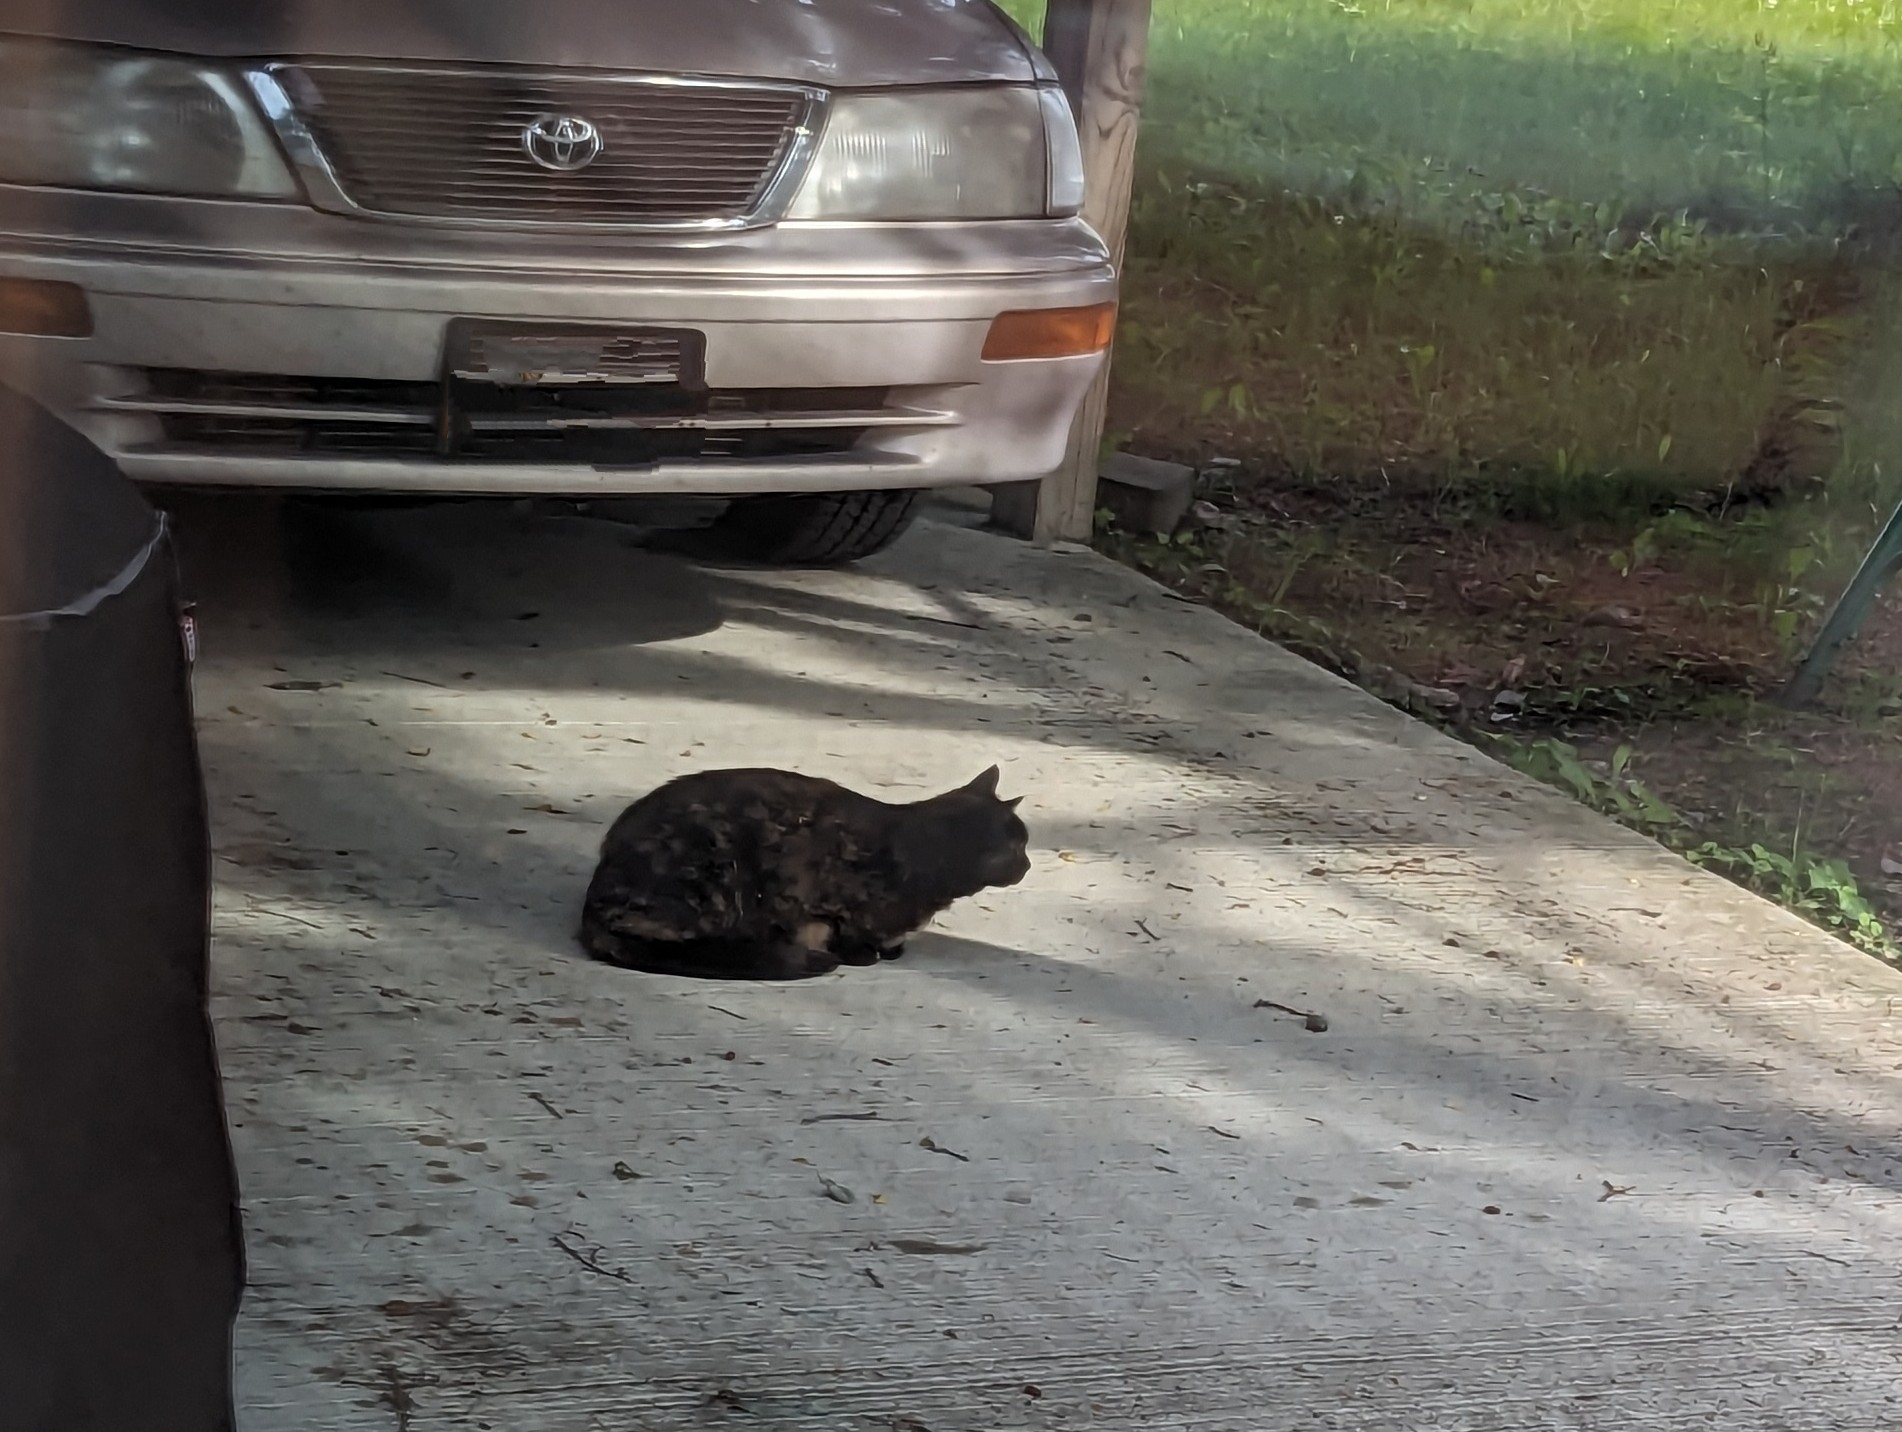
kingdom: Animalia
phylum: Chordata
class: Mammalia
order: Carnivora
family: Felidae
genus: Felis
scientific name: Felis catus
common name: Domestic cat
